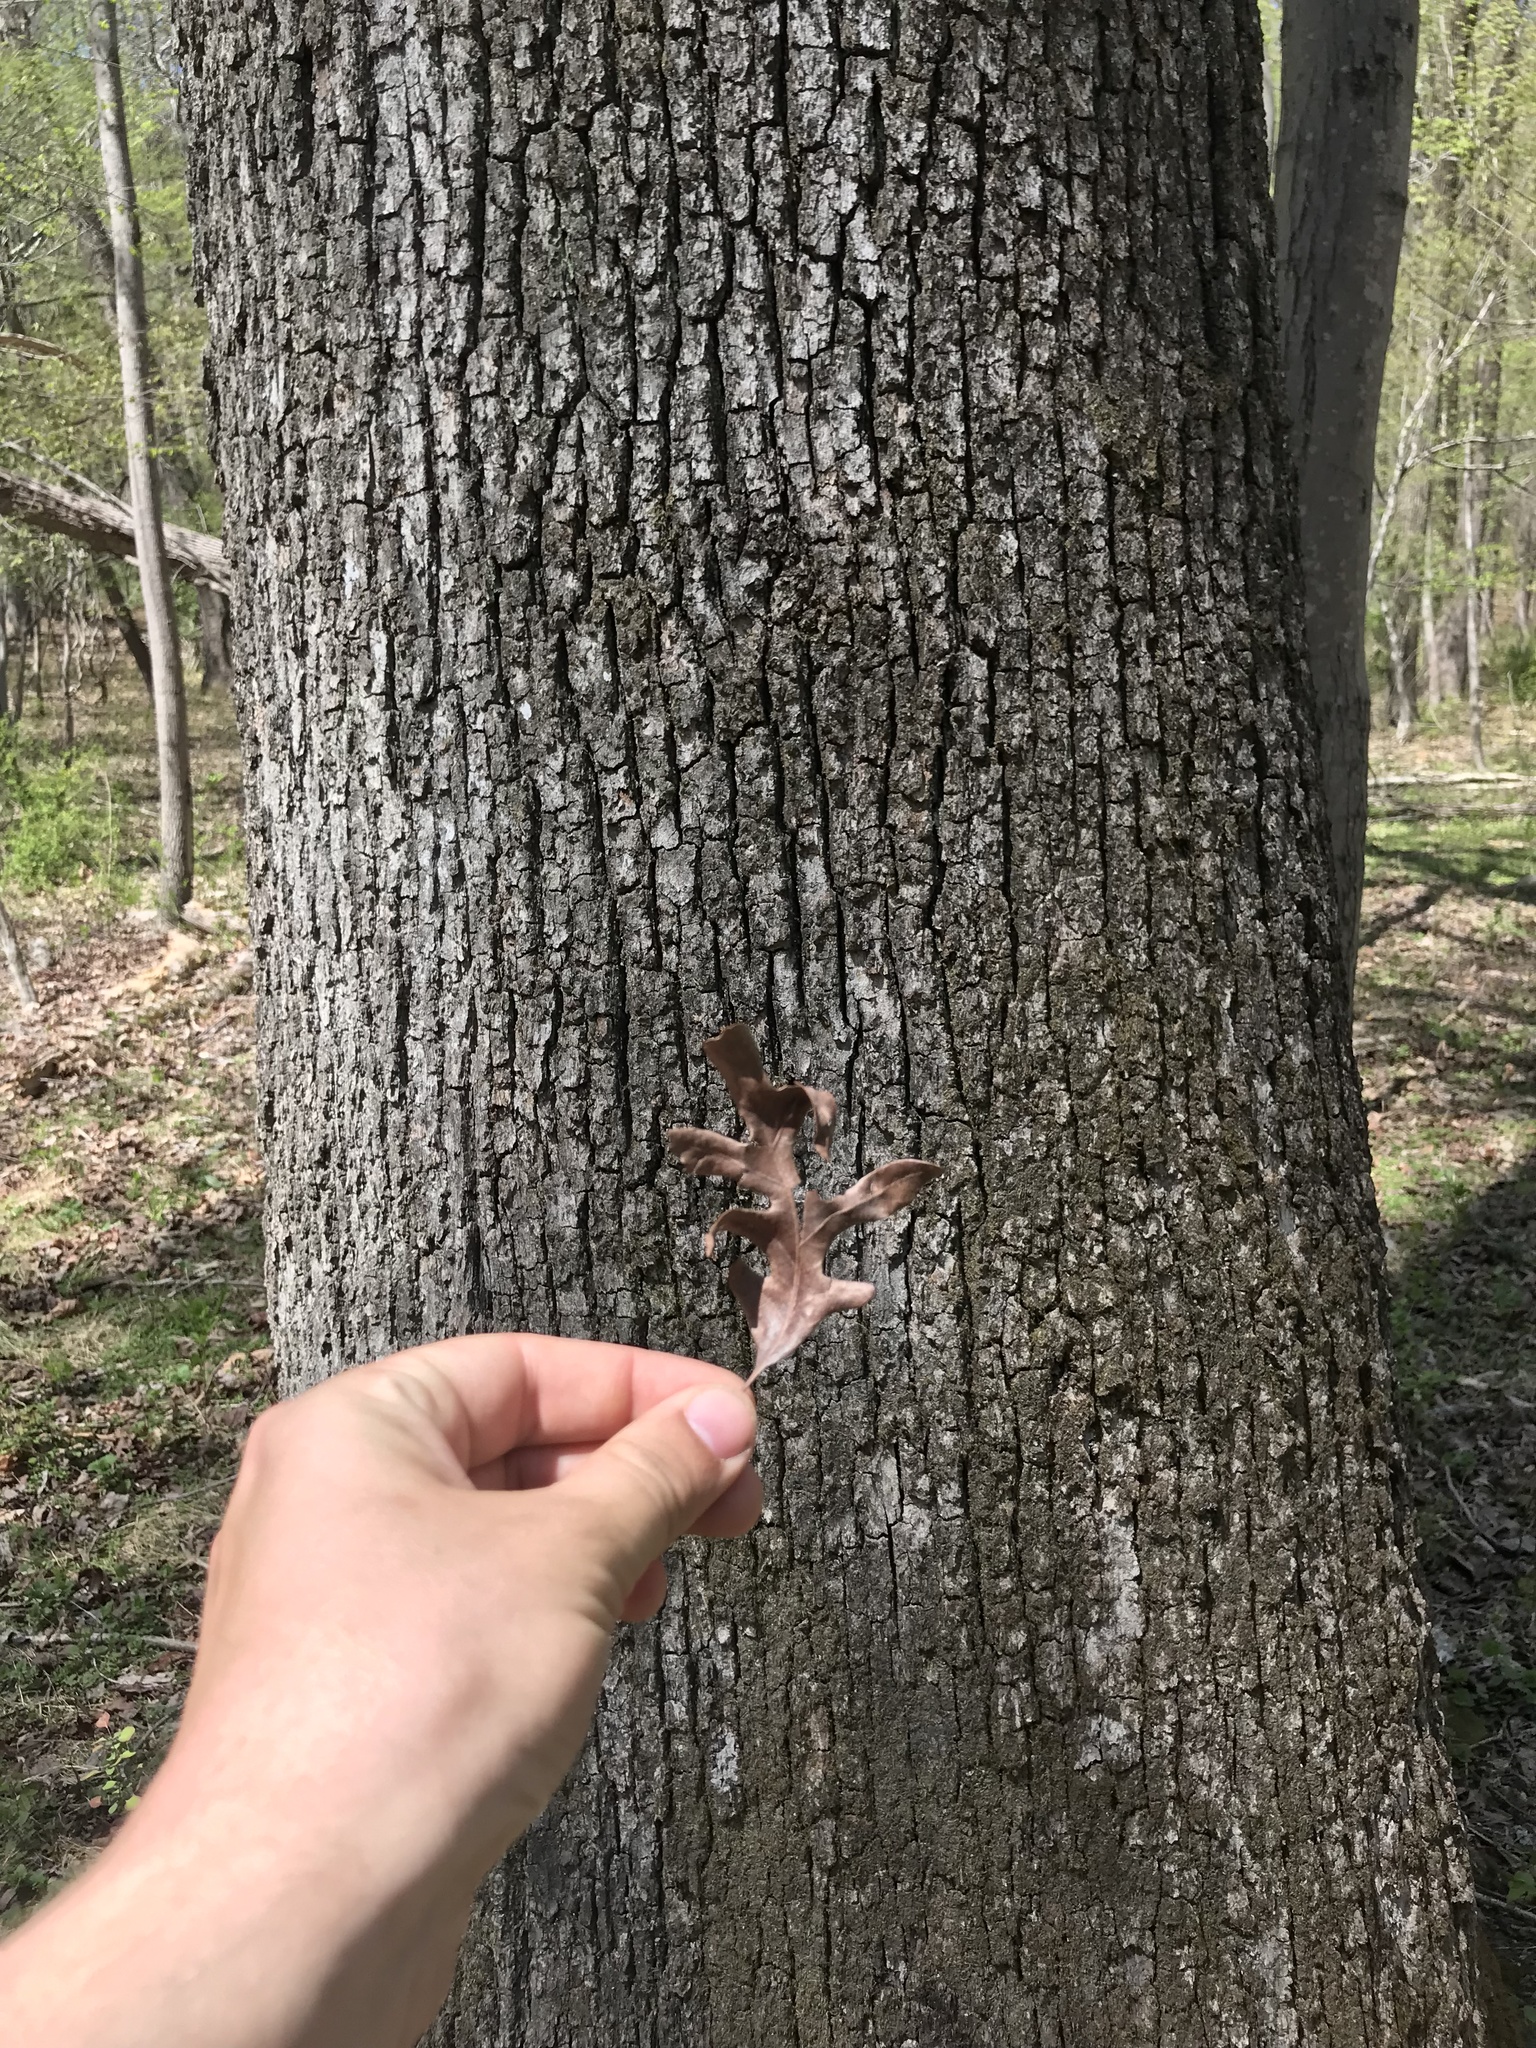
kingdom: Plantae
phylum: Tracheophyta
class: Magnoliopsida
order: Fagales
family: Fagaceae
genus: Quercus
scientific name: Quercus alba
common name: White oak
